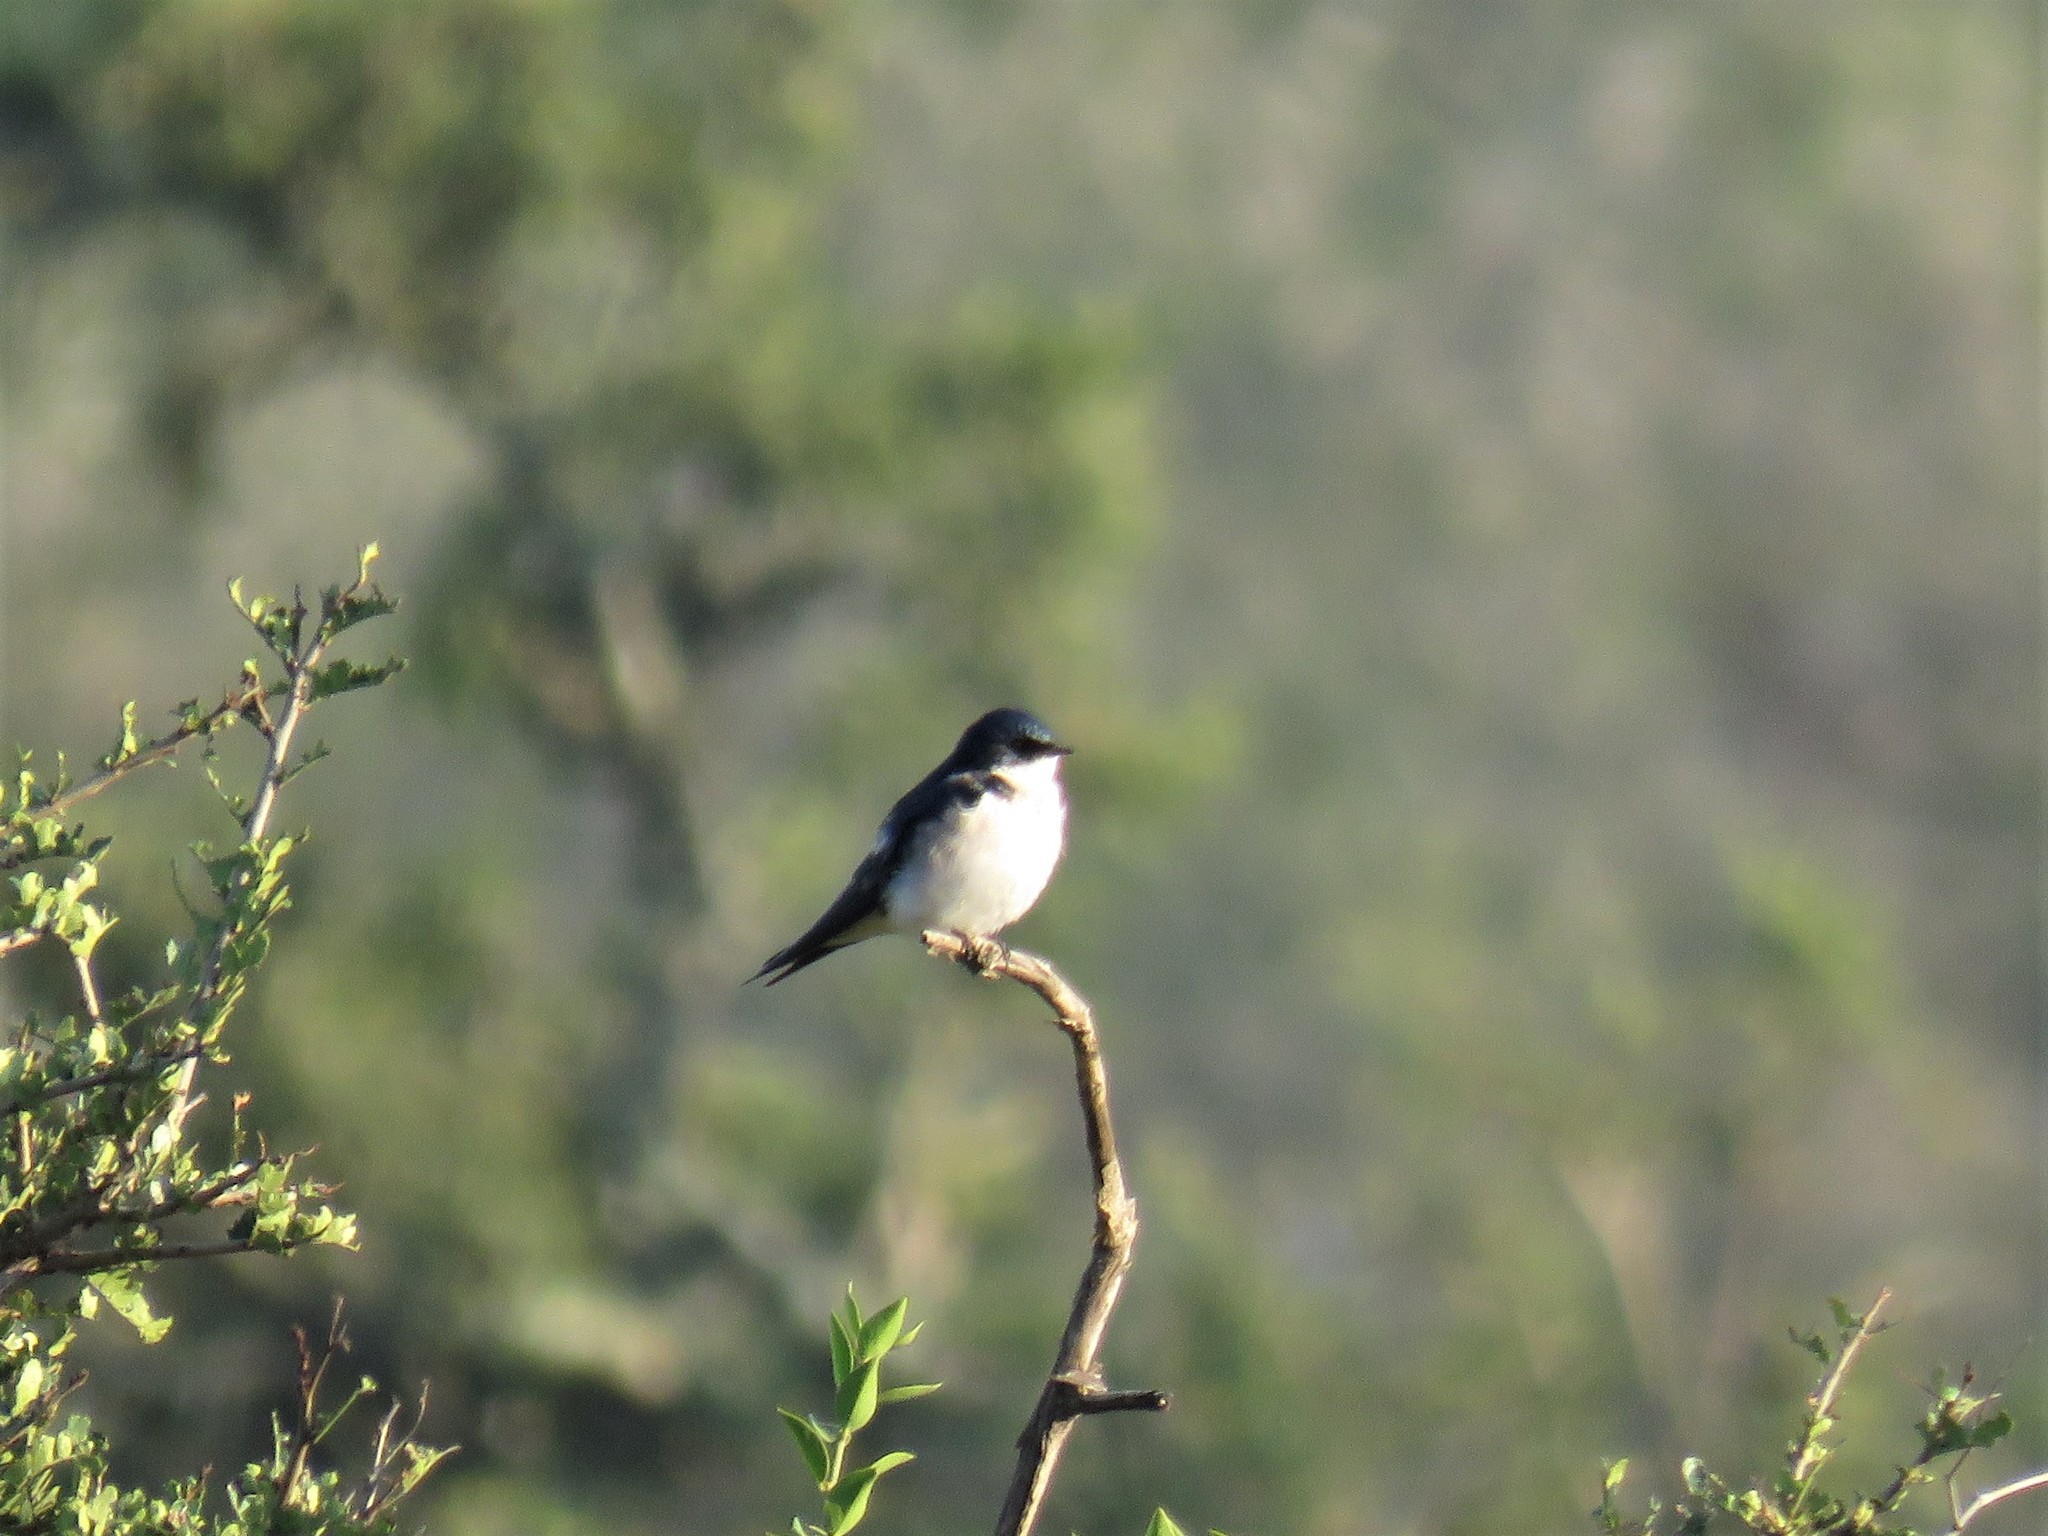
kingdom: Animalia
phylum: Chordata
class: Aves
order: Passeriformes
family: Hirundinidae
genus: Hirundo
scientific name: Hirundo dimidiata
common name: Pearl-breasted swallow
